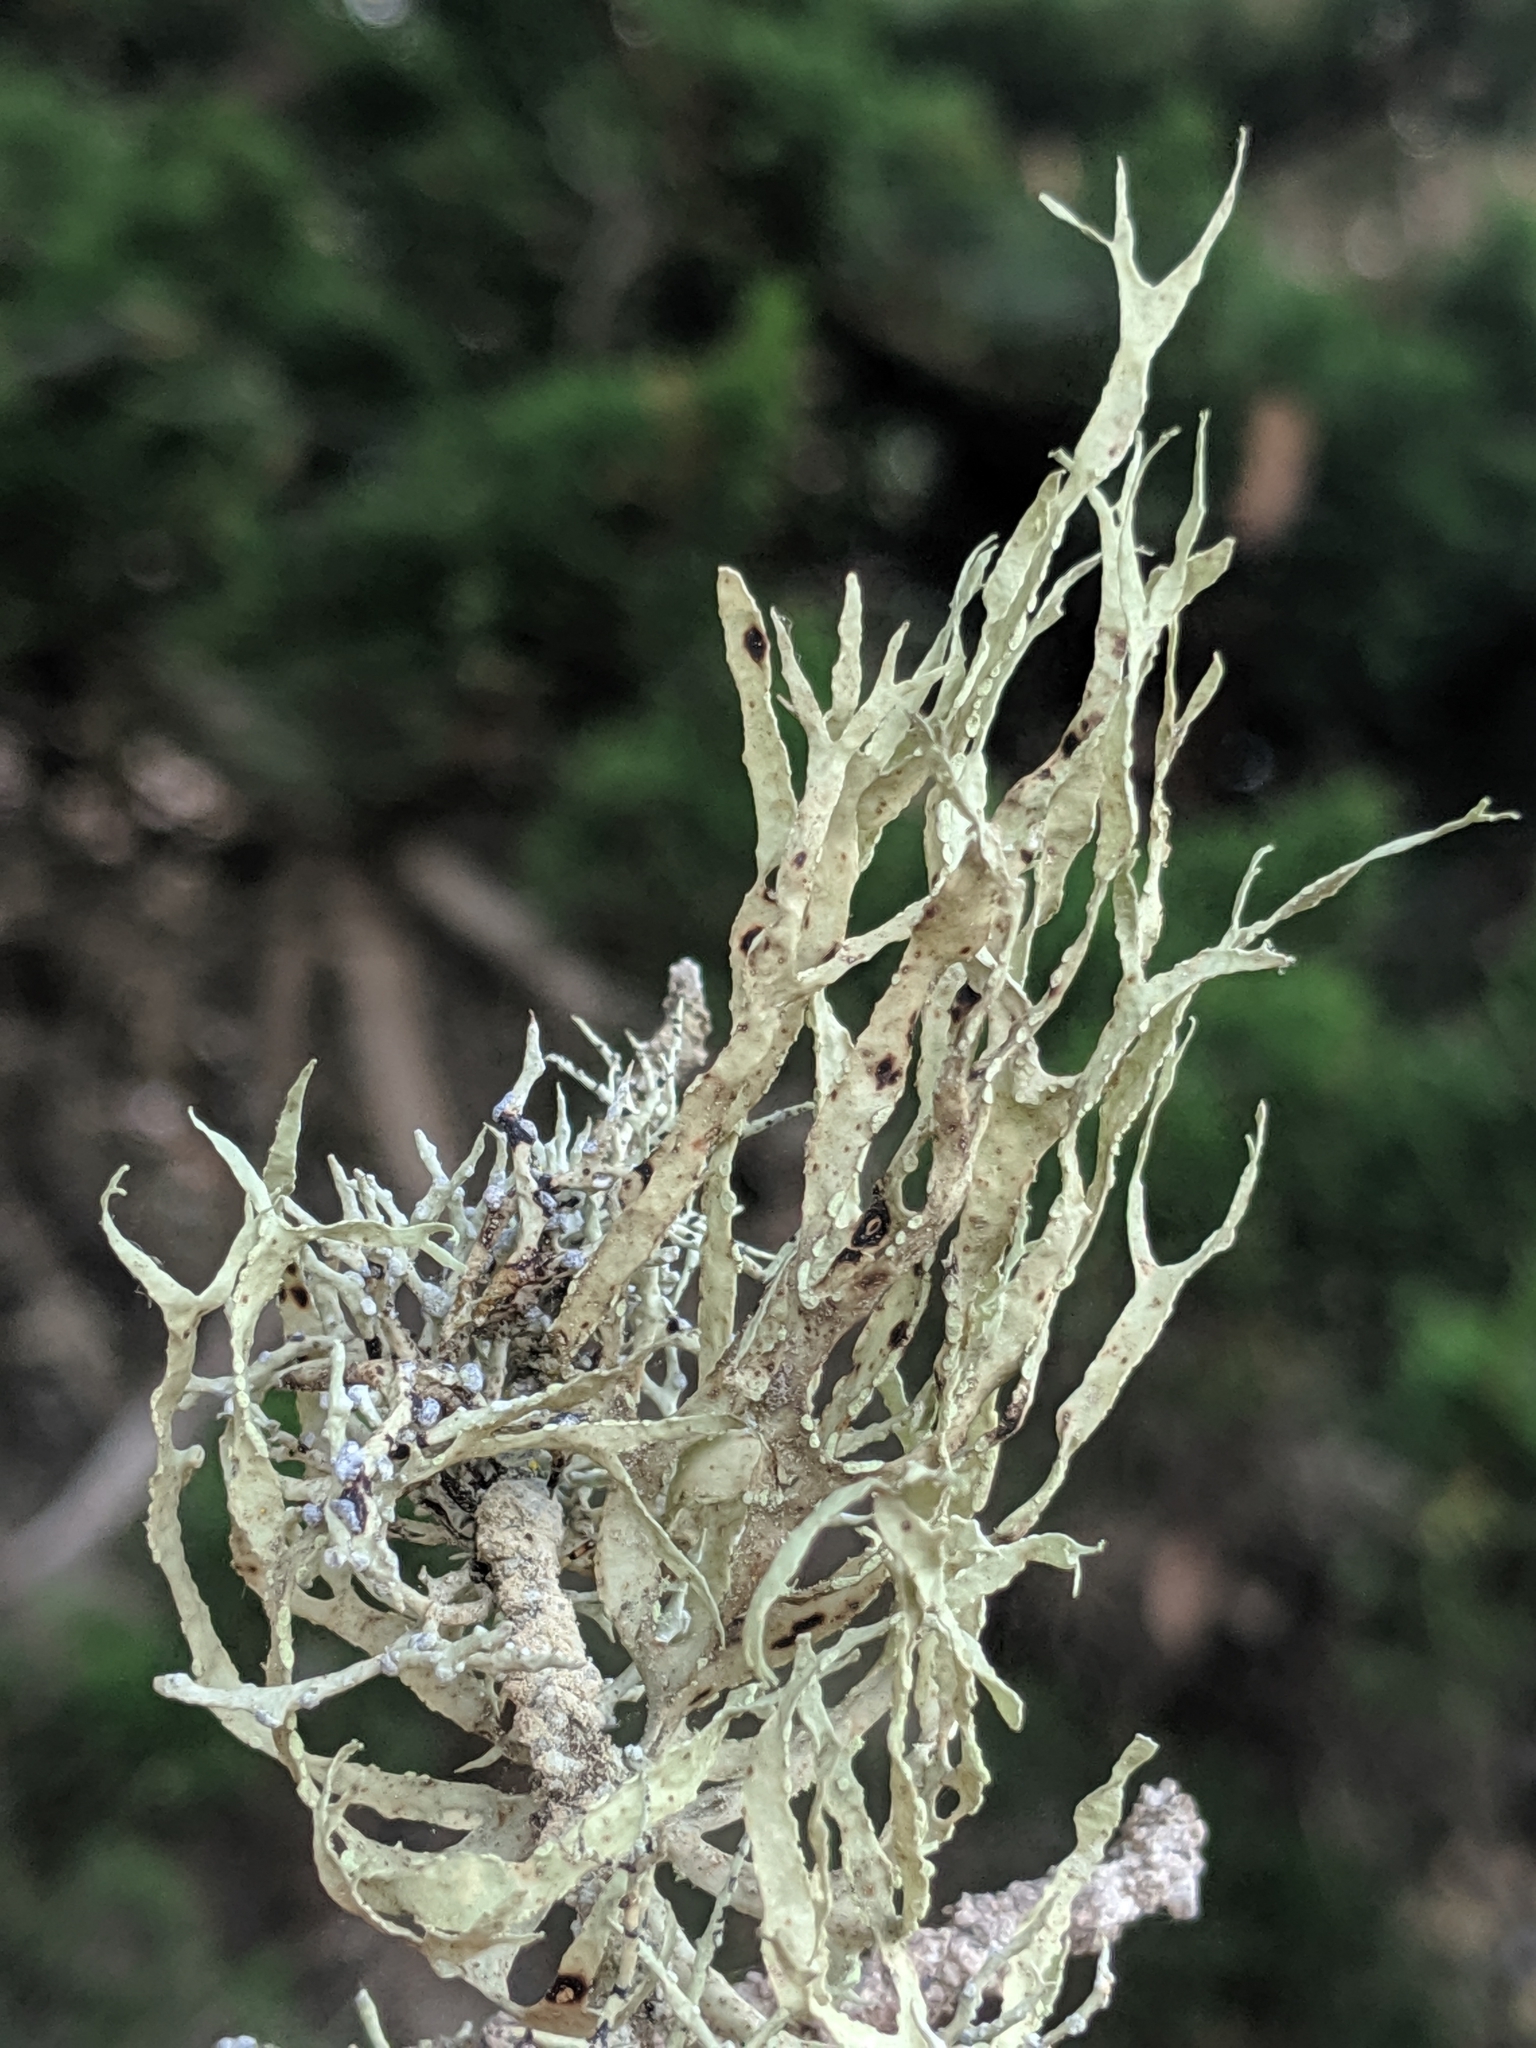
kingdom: Fungi
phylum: Ascomycota
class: Lecanoromycetes
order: Lecanorales
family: Ramalinaceae
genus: Ramalina
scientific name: Ramalina farinacea
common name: Farinose cartilage lichen
